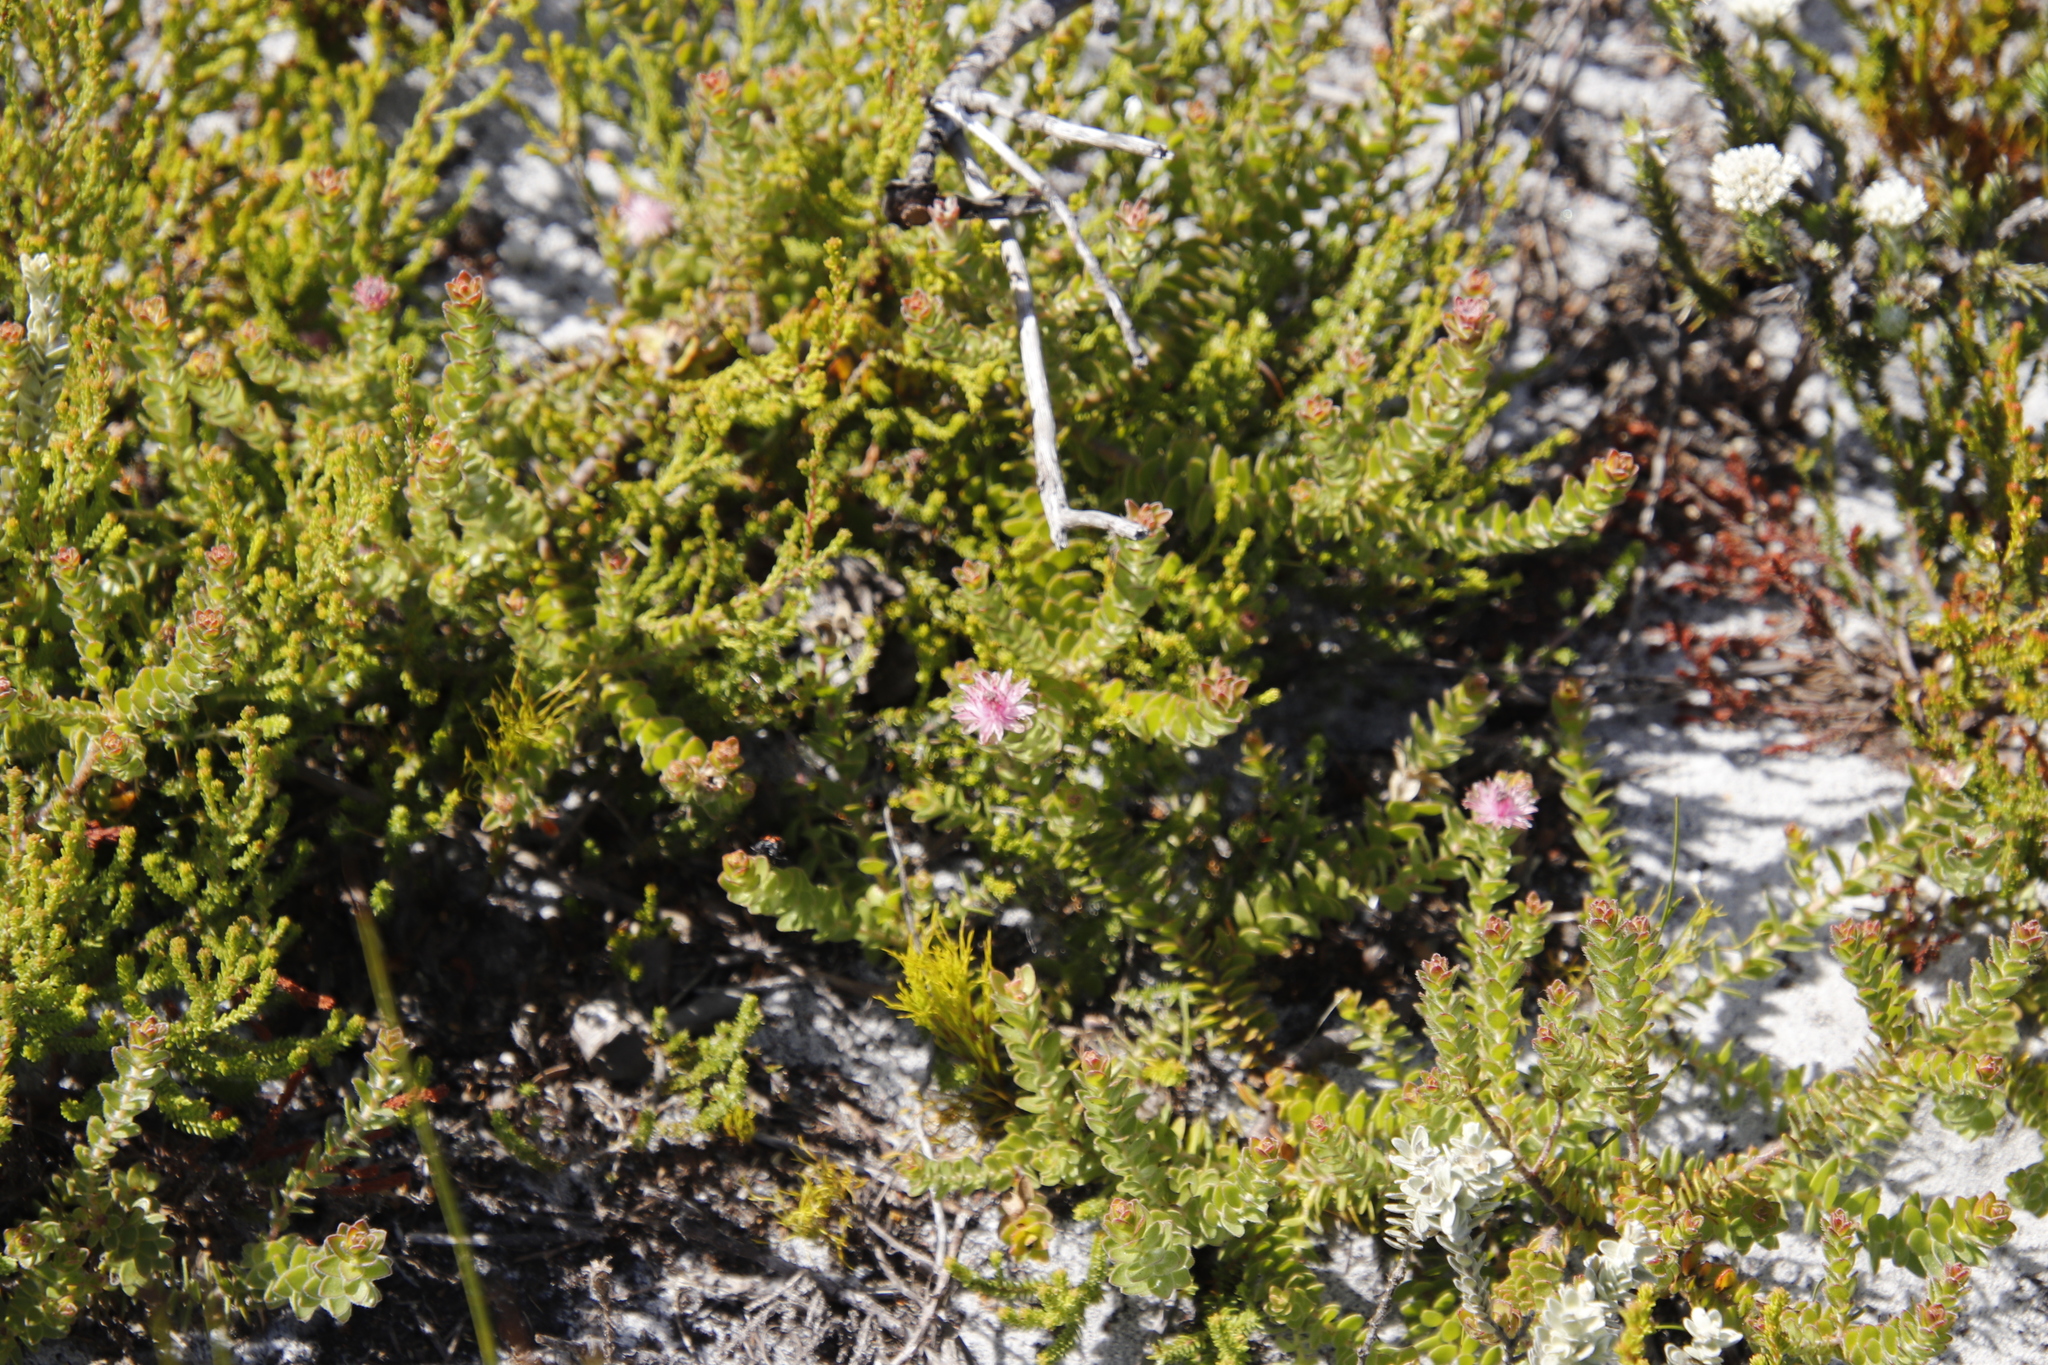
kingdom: Plantae
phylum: Tracheophyta
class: Magnoliopsida
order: Proteales
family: Proteaceae
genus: Diastella
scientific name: Diastella divaricata
